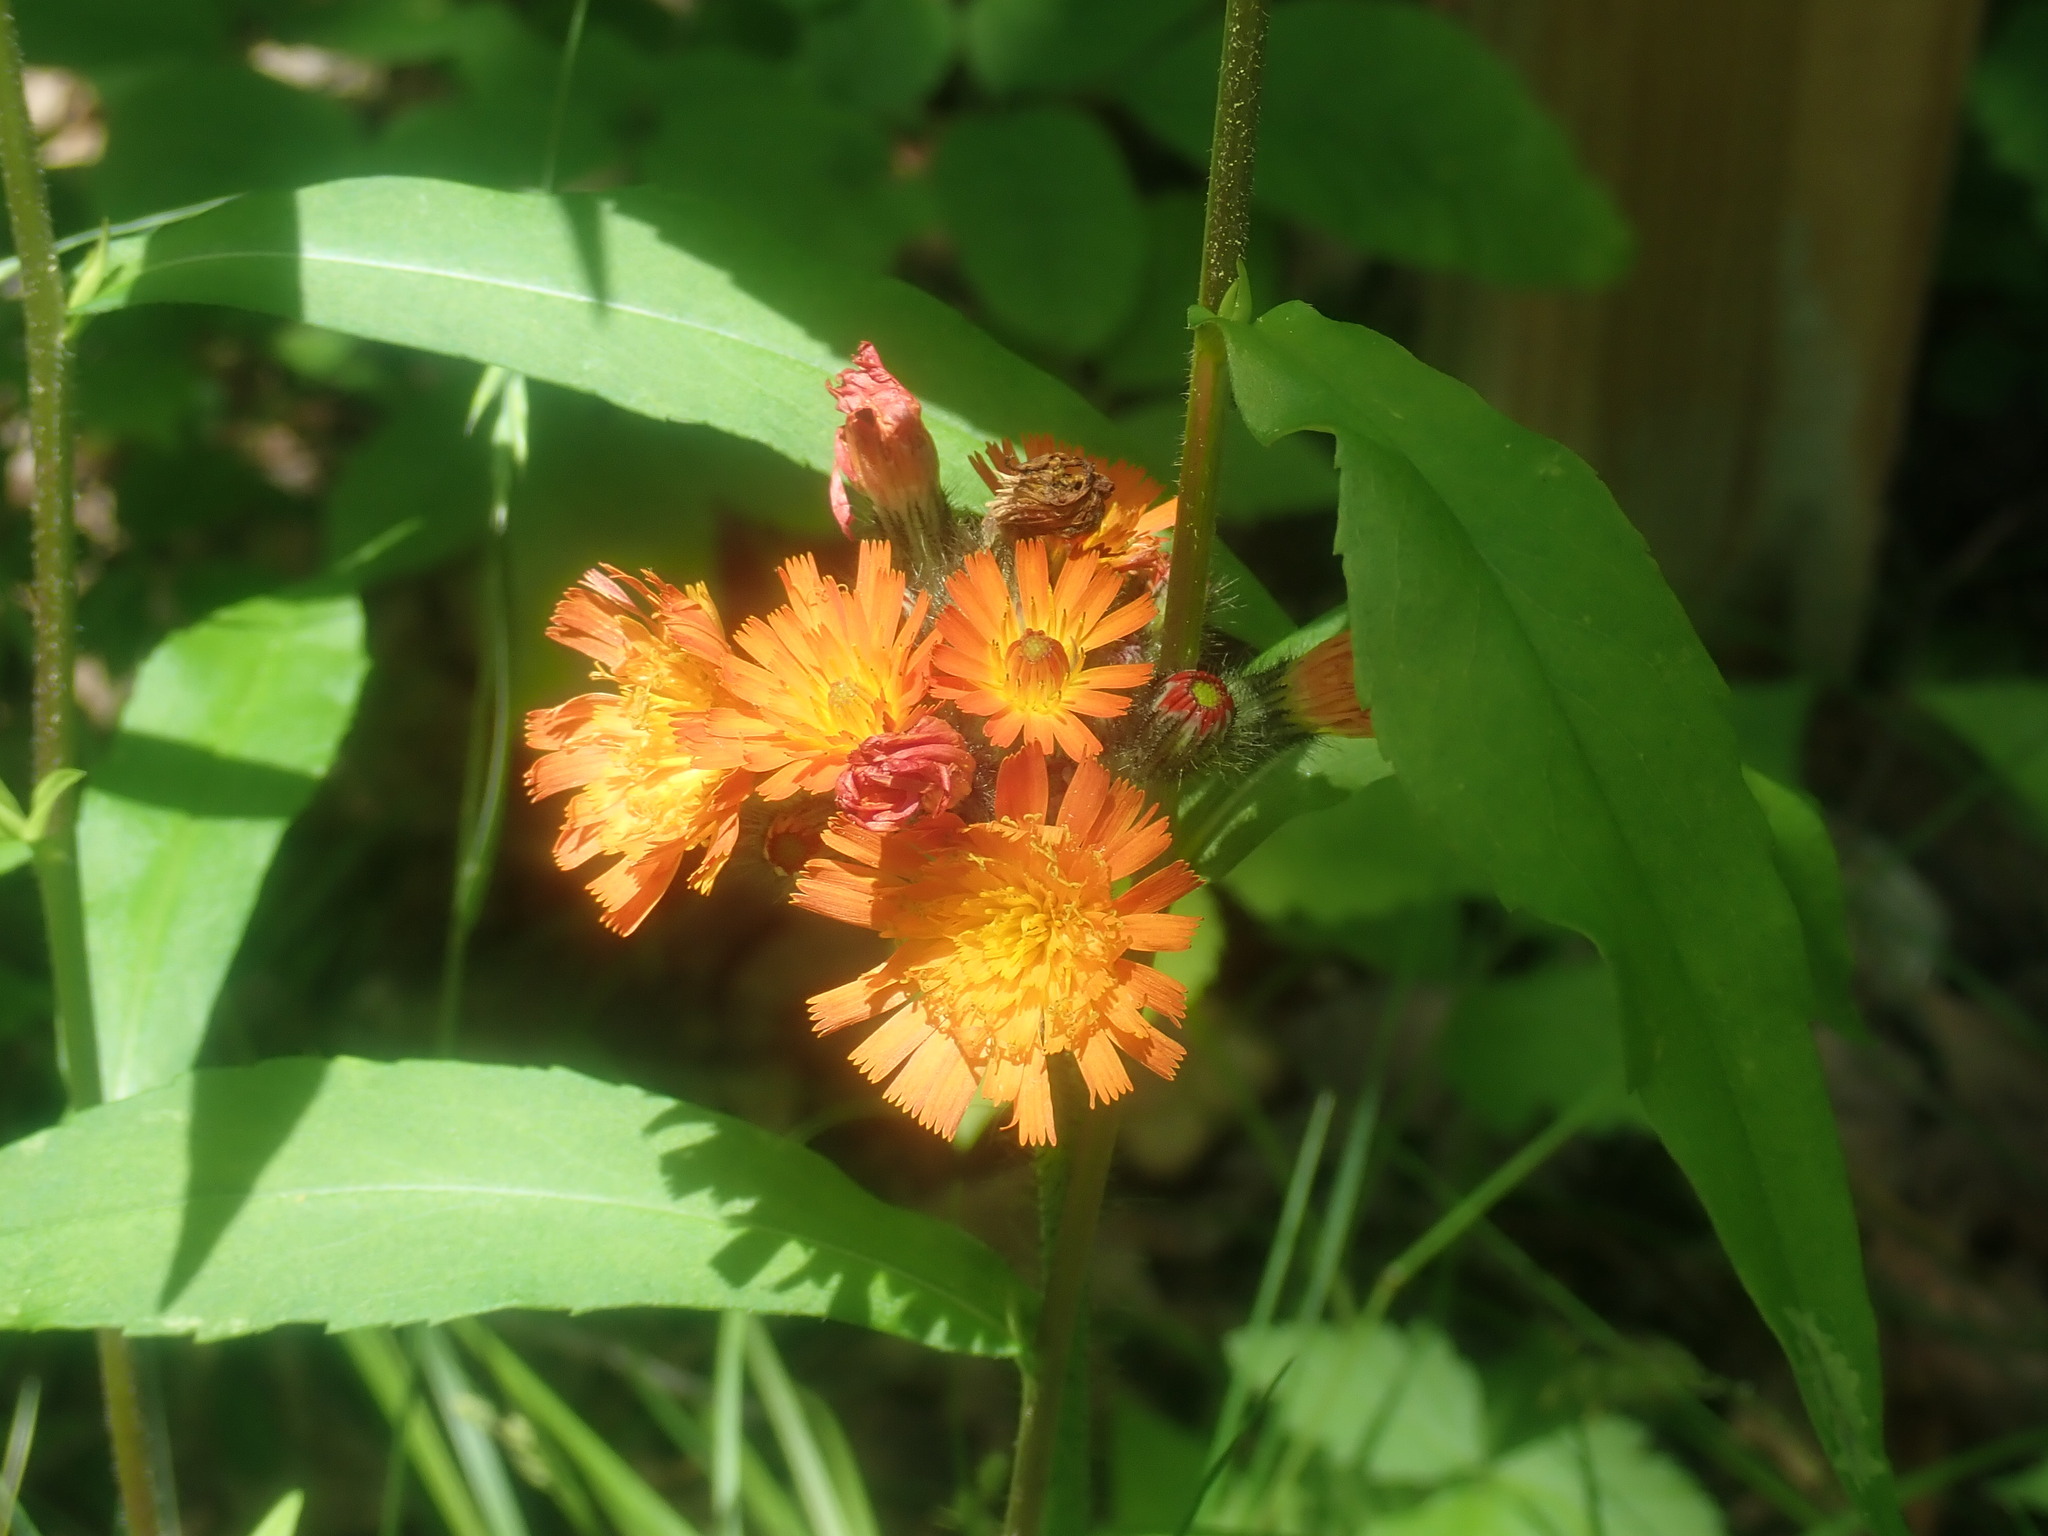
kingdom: Plantae
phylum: Tracheophyta
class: Magnoliopsida
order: Asterales
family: Asteraceae
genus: Pilosella
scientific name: Pilosella aurantiaca
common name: Fox-and-cubs
